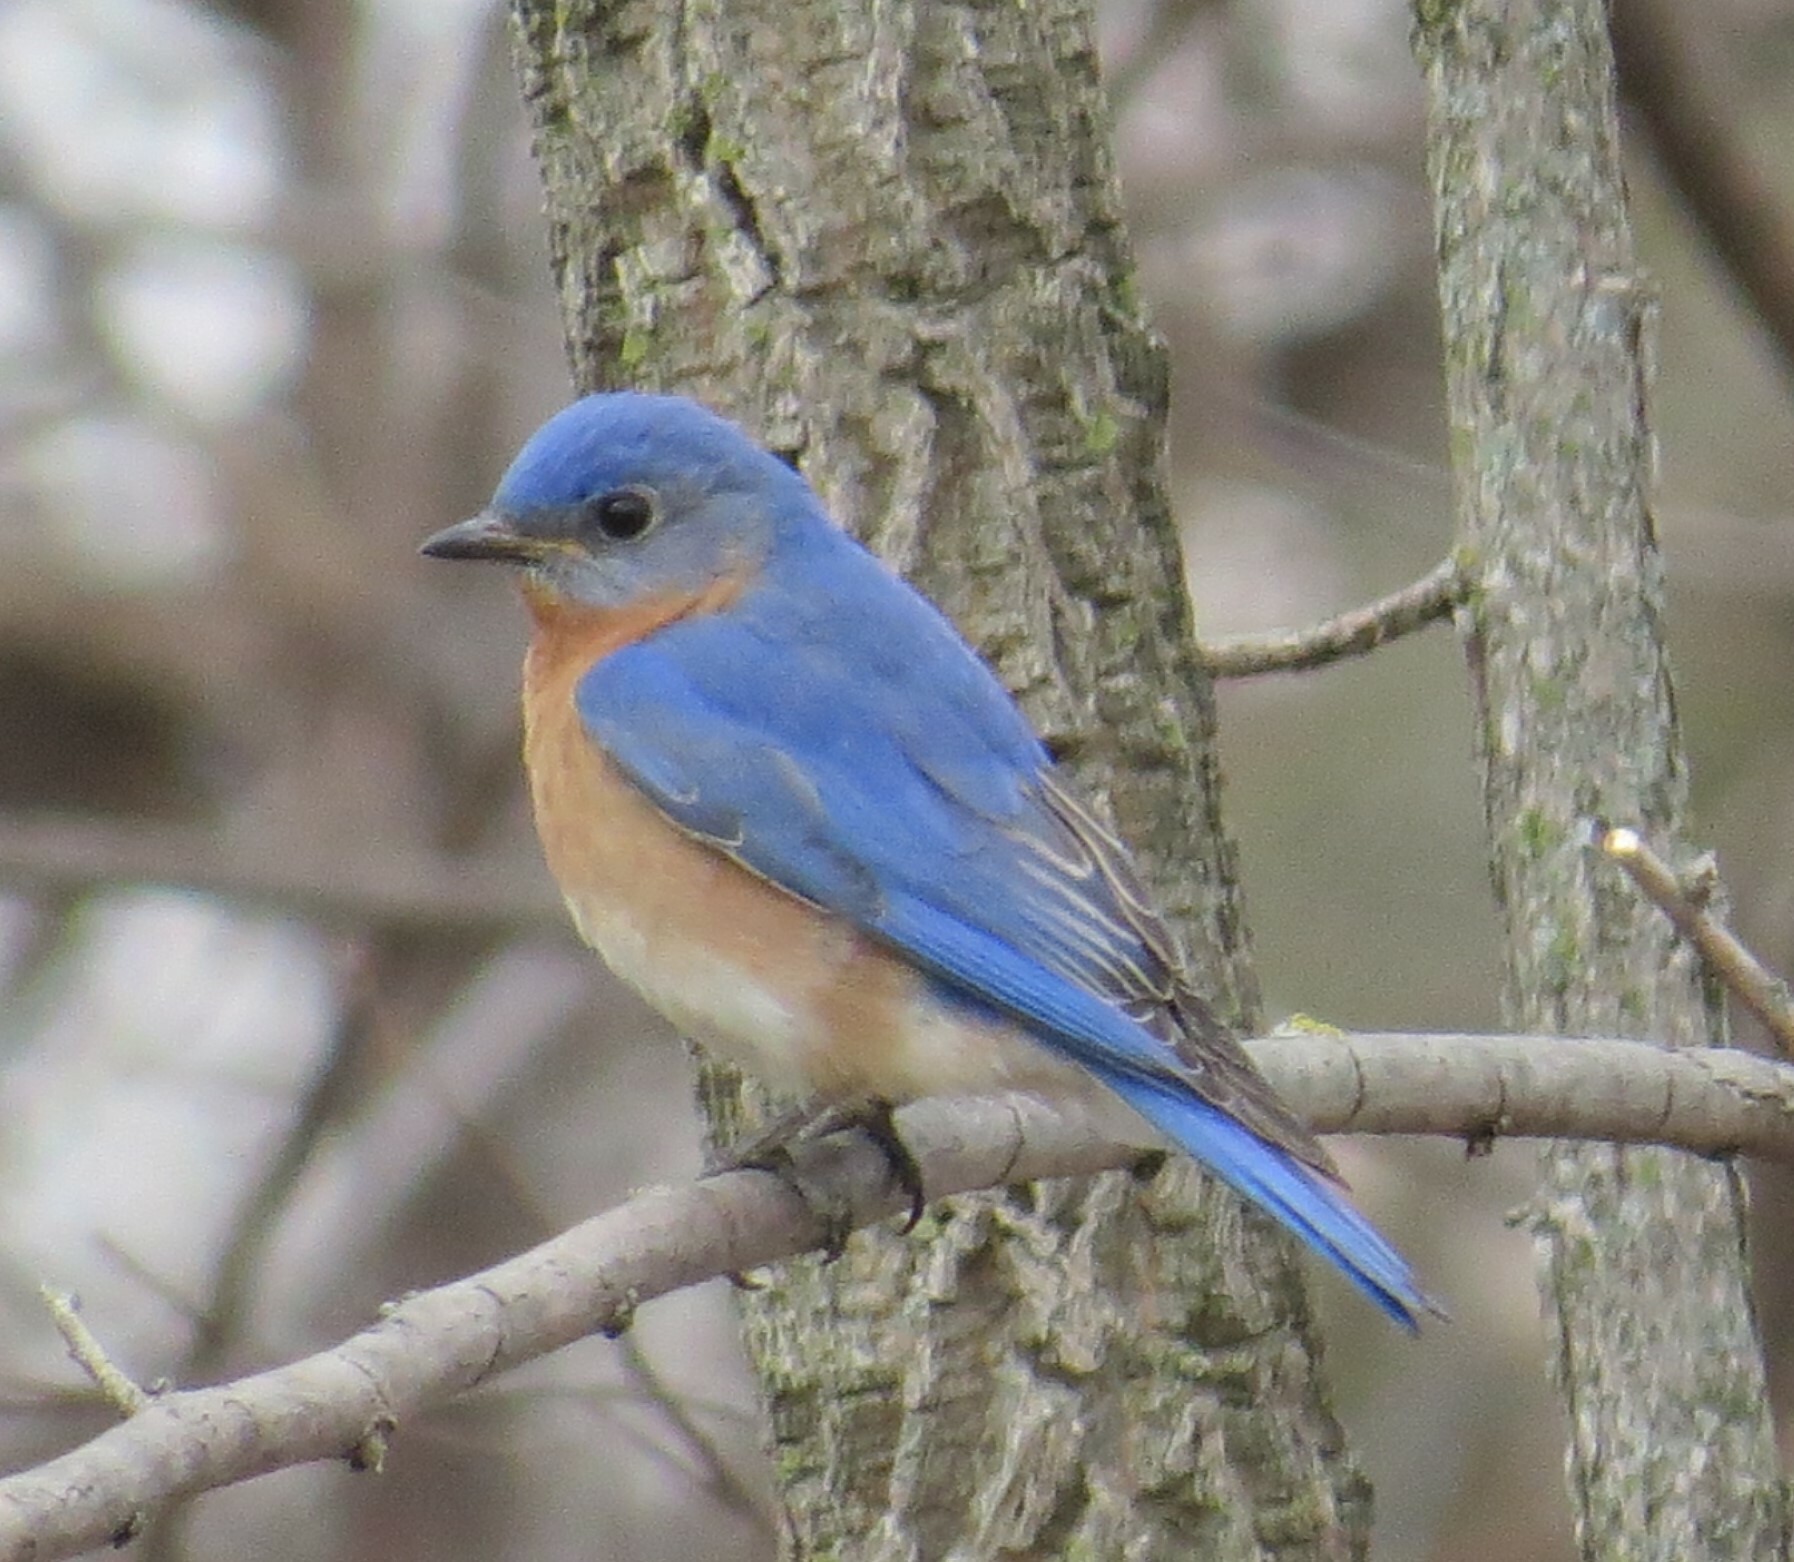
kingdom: Animalia
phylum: Chordata
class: Aves
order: Passeriformes
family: Turdidae
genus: Sialia
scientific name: Sialia sialis
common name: Eastern bluebird
